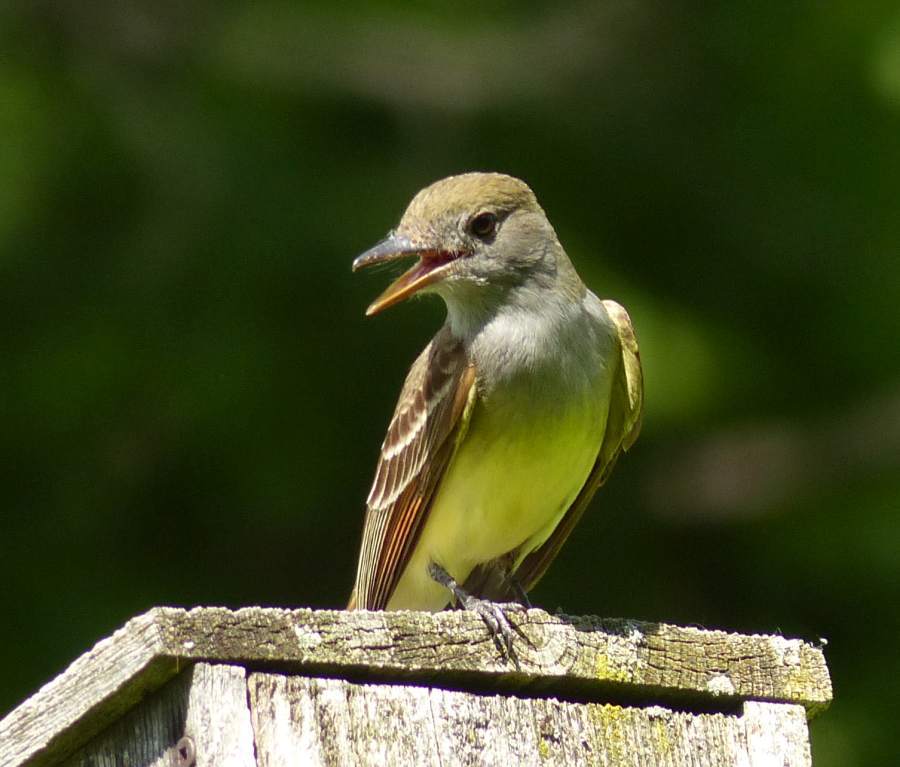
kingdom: Animalia
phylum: Chordata
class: Aves
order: Passeriformes
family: Tyrannidae
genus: Myiarchus
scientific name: Myiarchus crinitus
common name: Great crested flycatcher
